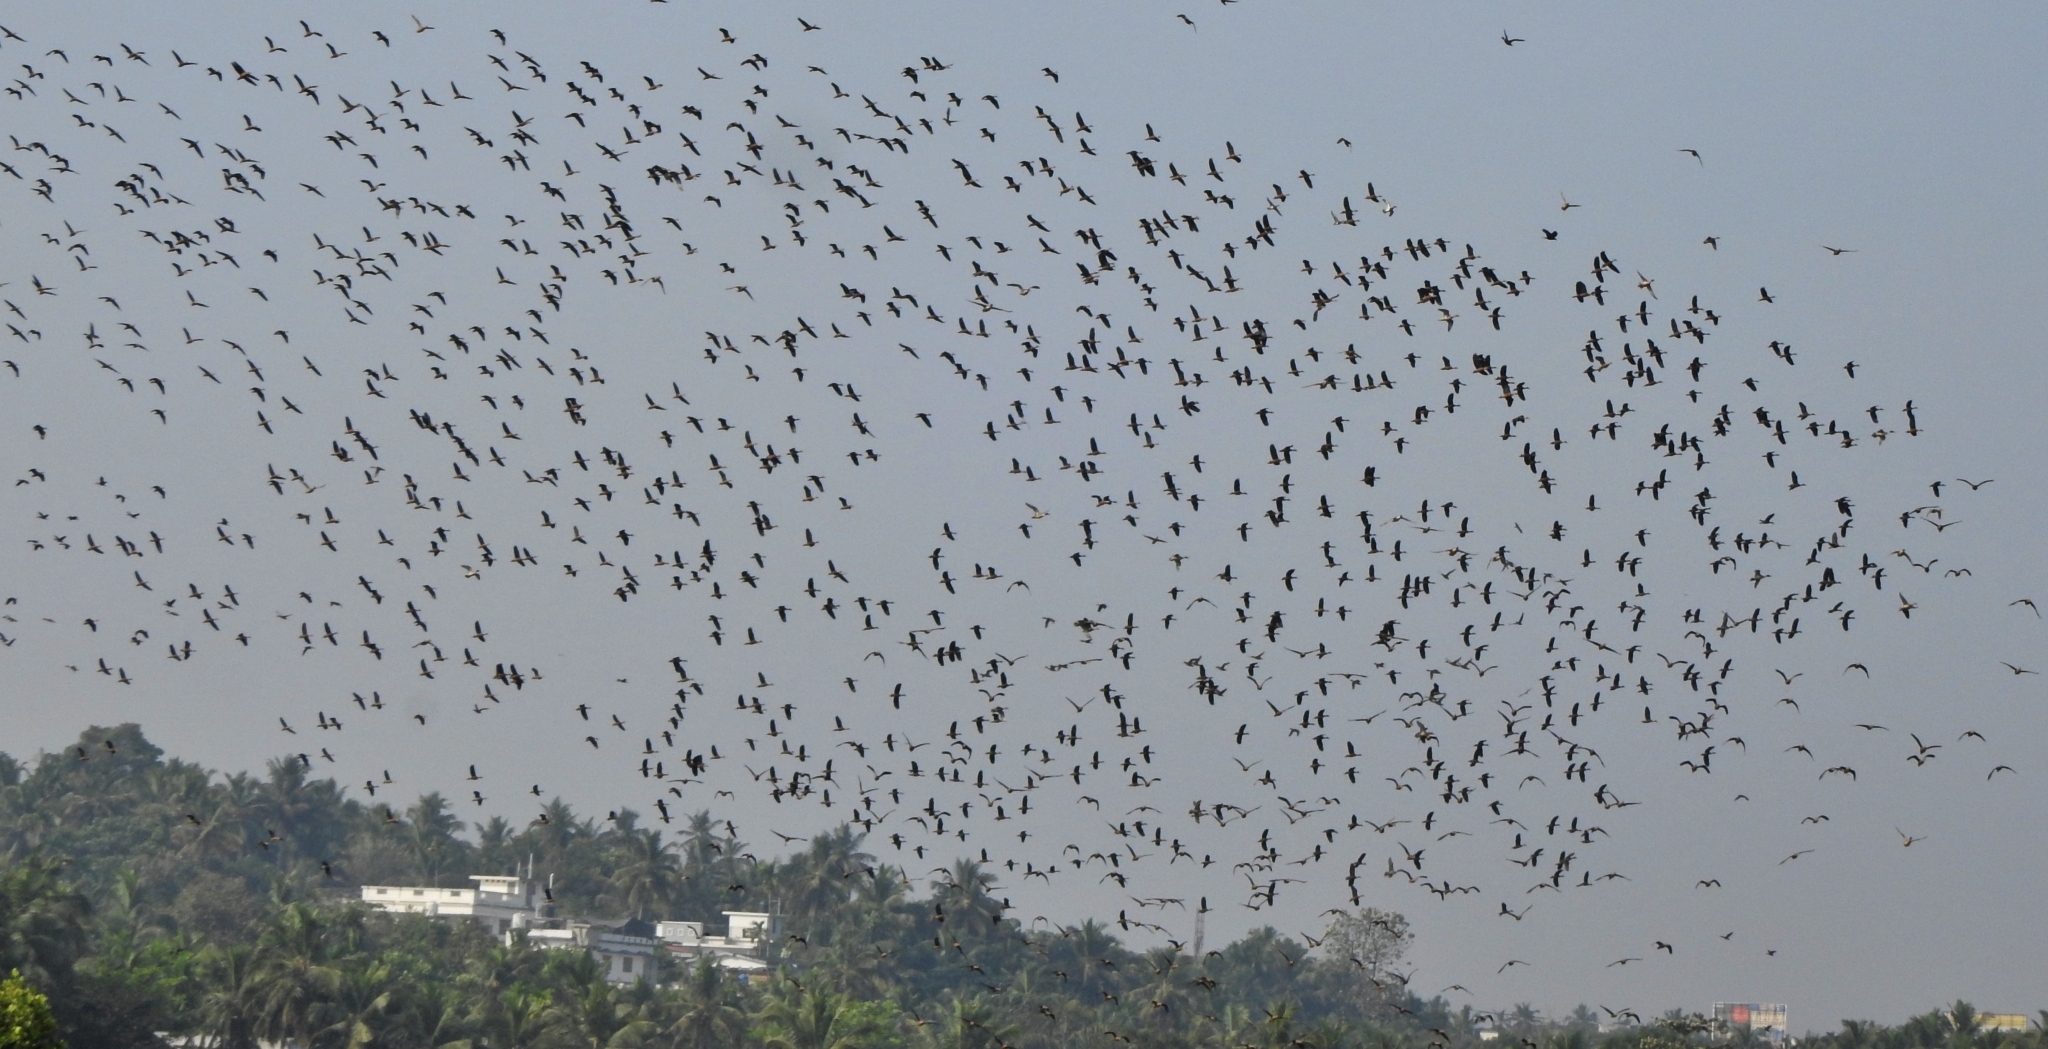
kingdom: Animalia
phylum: Chordata
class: Aves
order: Anseriformes
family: Anatidae
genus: Dendrocygna
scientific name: Dendrocygna javanica
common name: Lesser whistling-duck
